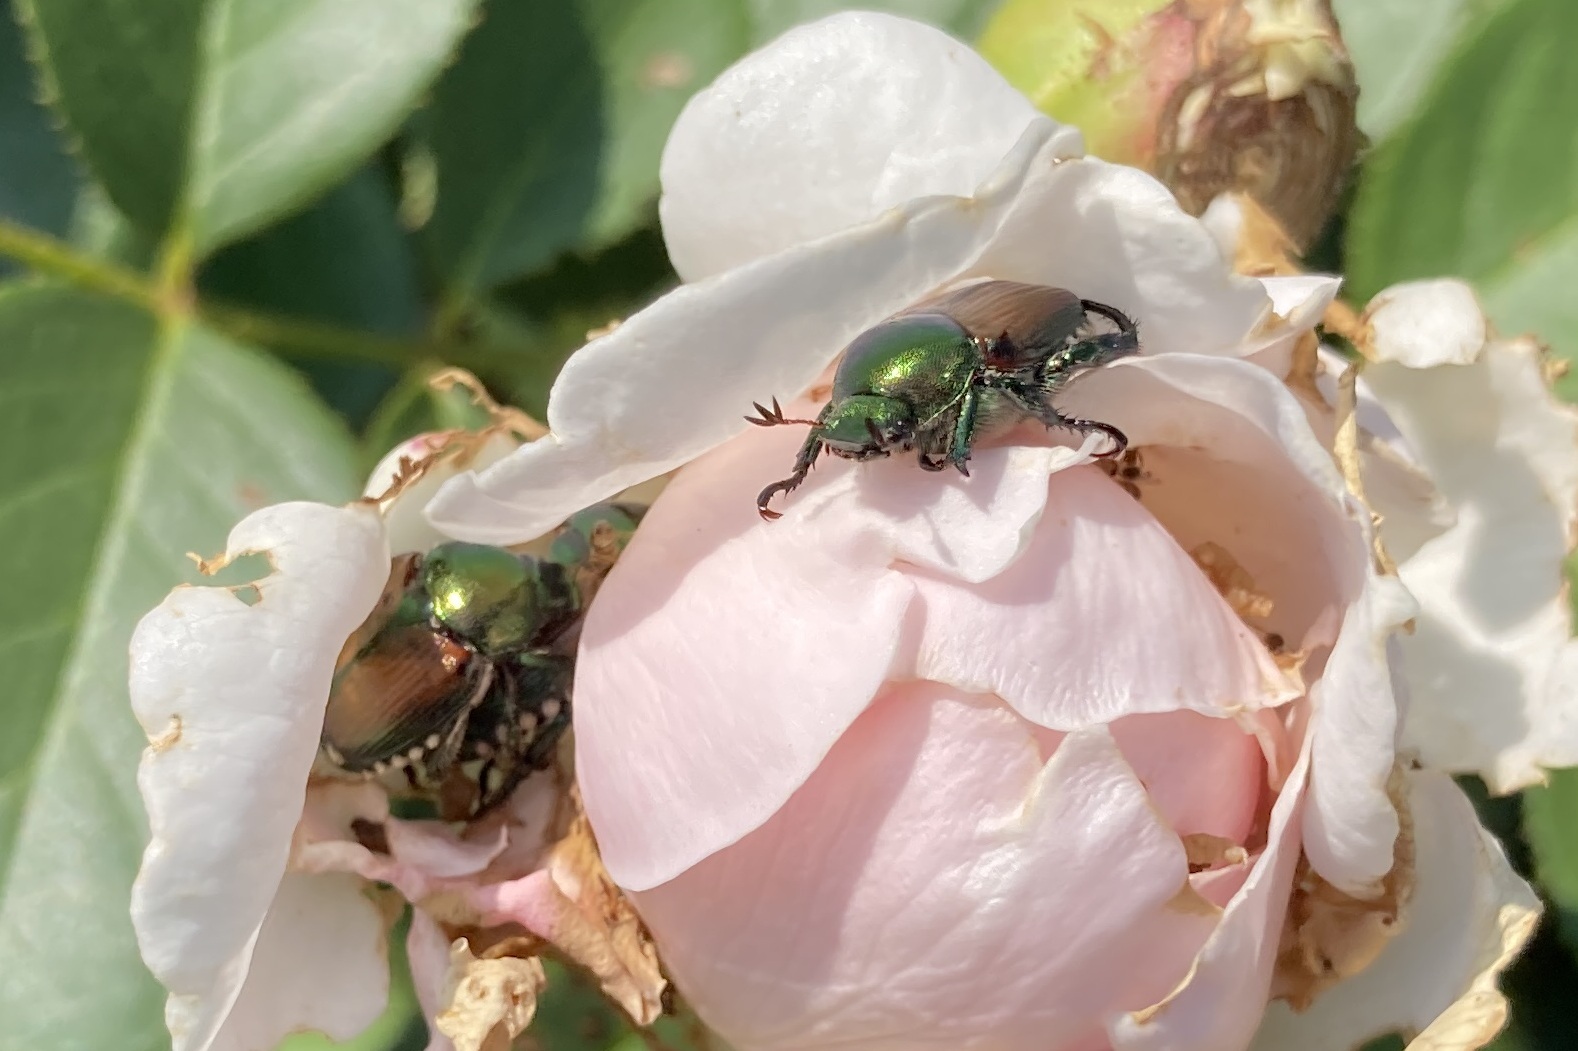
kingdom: Animalia
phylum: Arthropoda
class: Insecta
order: Coleoptera
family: Scarabaeidae
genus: Popillia
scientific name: Popillia japonica
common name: Japanese beetle
